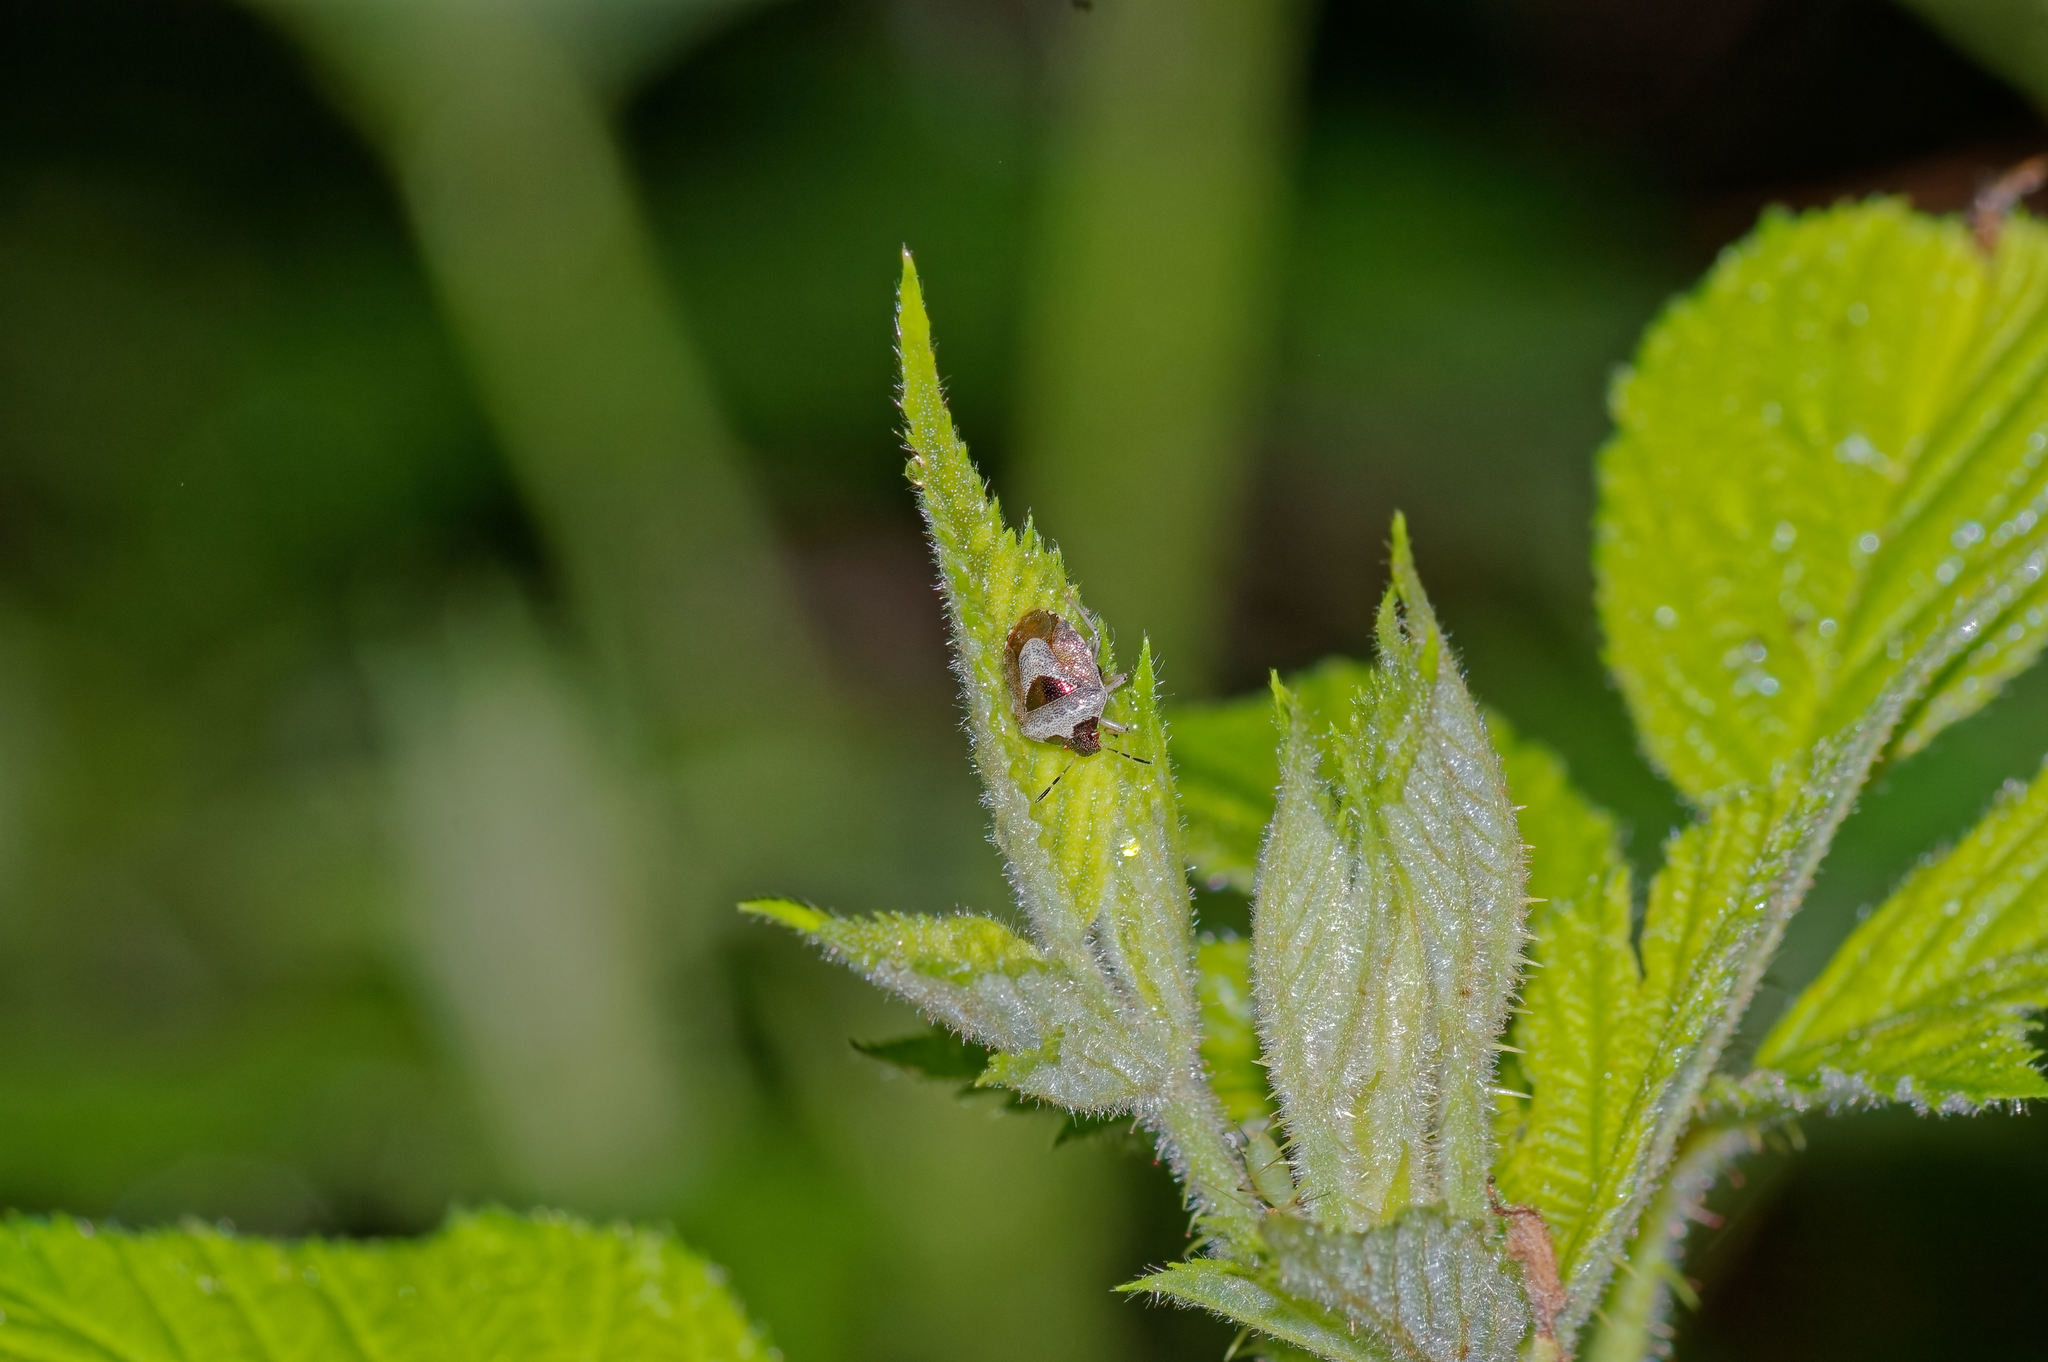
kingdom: Animalia
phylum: Arthropoda
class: Insecta
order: Hemiptera
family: Pentatomidae
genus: Eysarcoris
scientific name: Eysarcoris venustissimus
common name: Woundwort shieldbug
